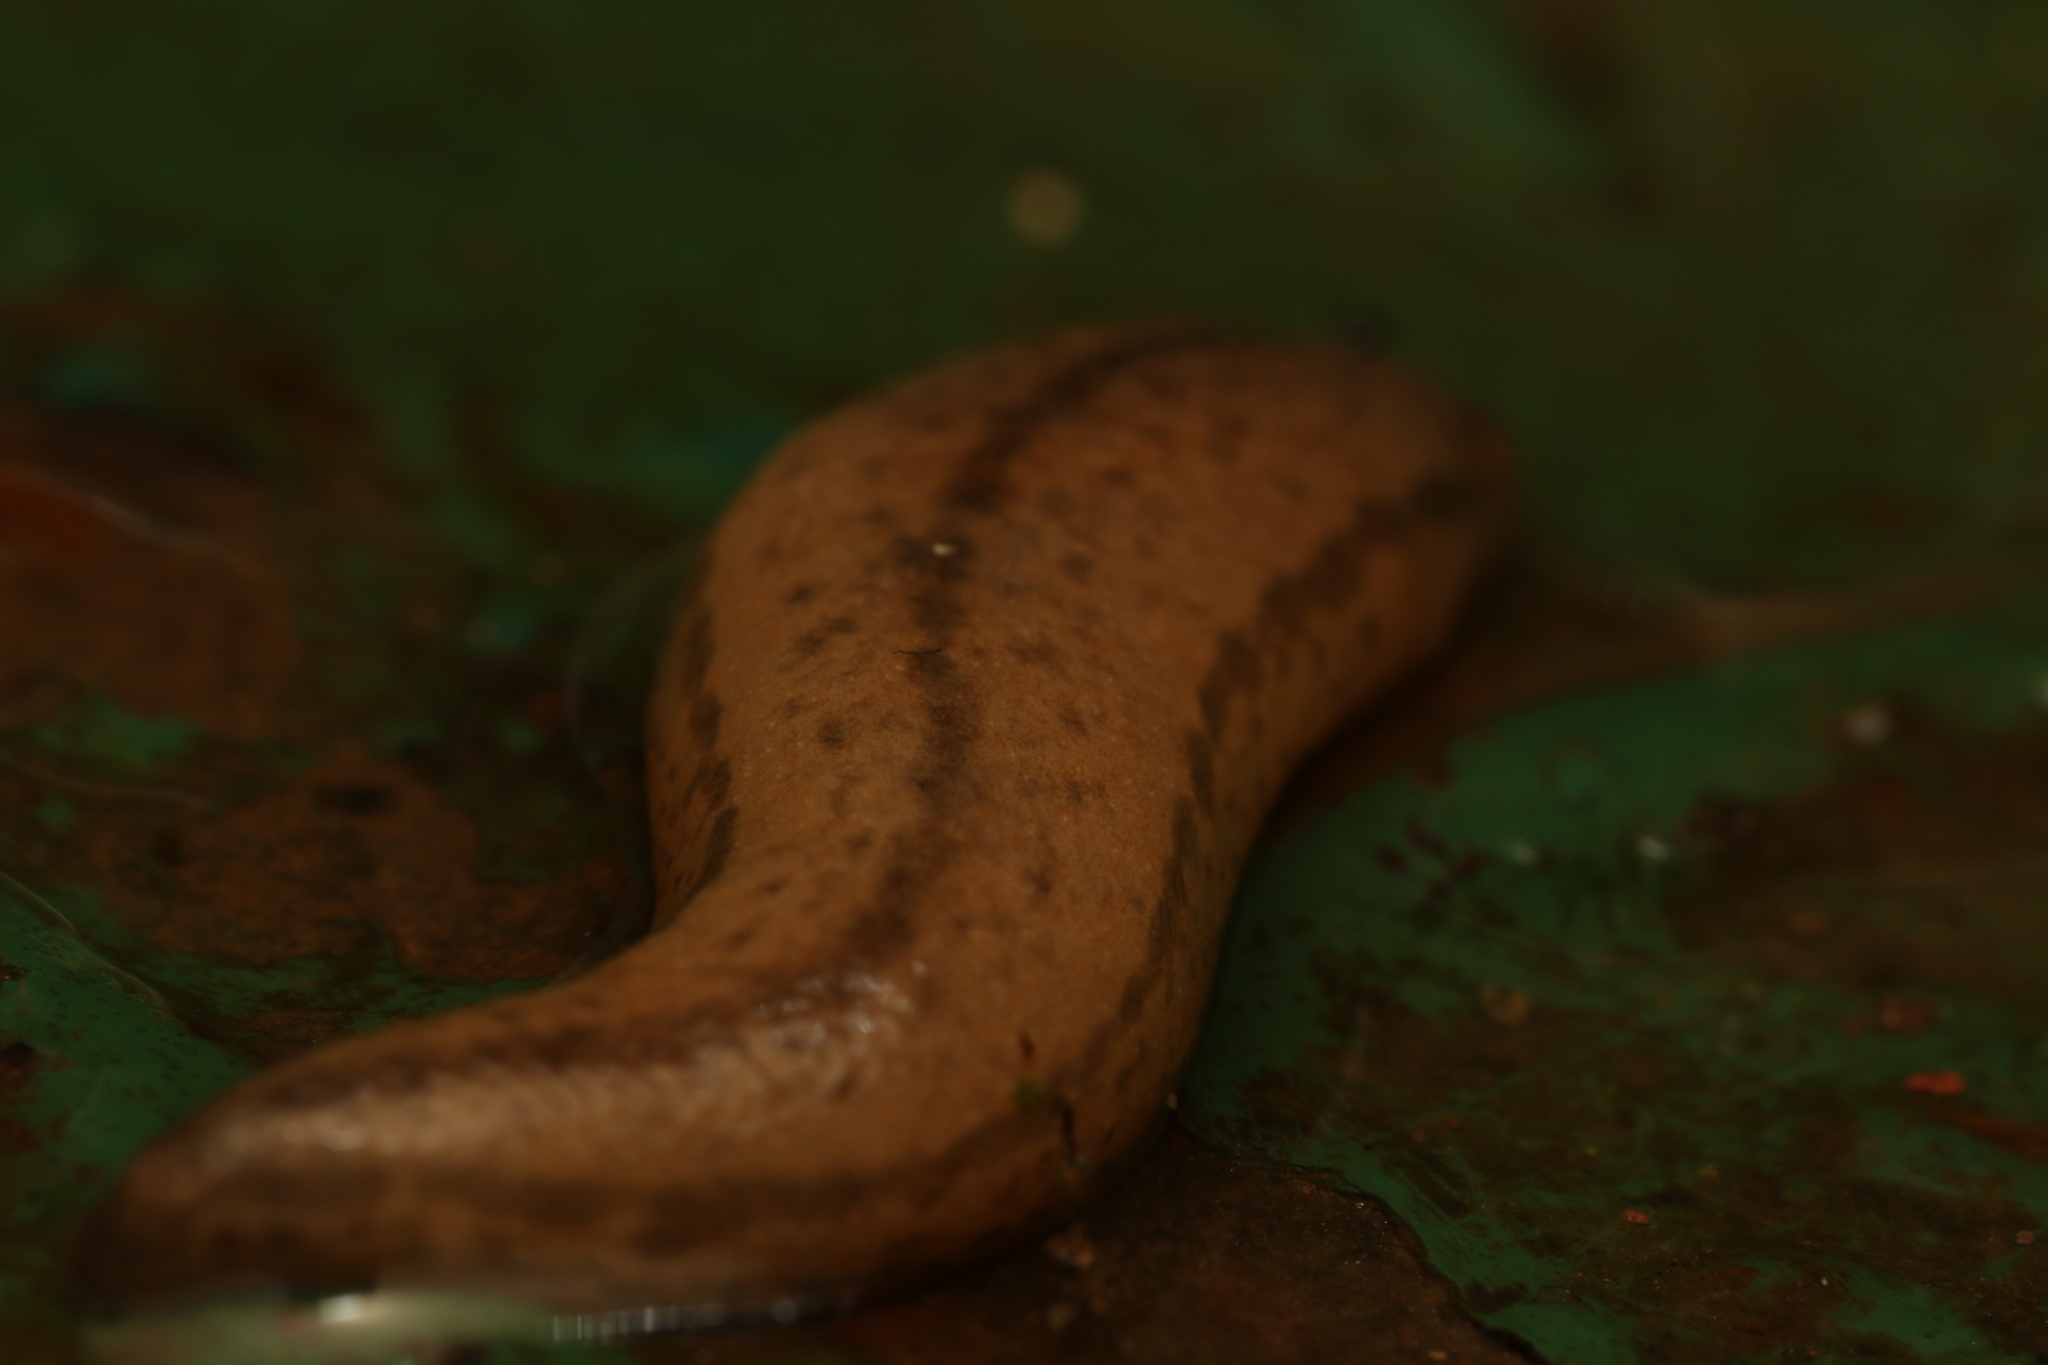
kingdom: Animalia
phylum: Mollusca
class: Gastropoda
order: Stylommatophora
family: Philomycidae
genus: Meghimatium
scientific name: Meghimatium pictum
